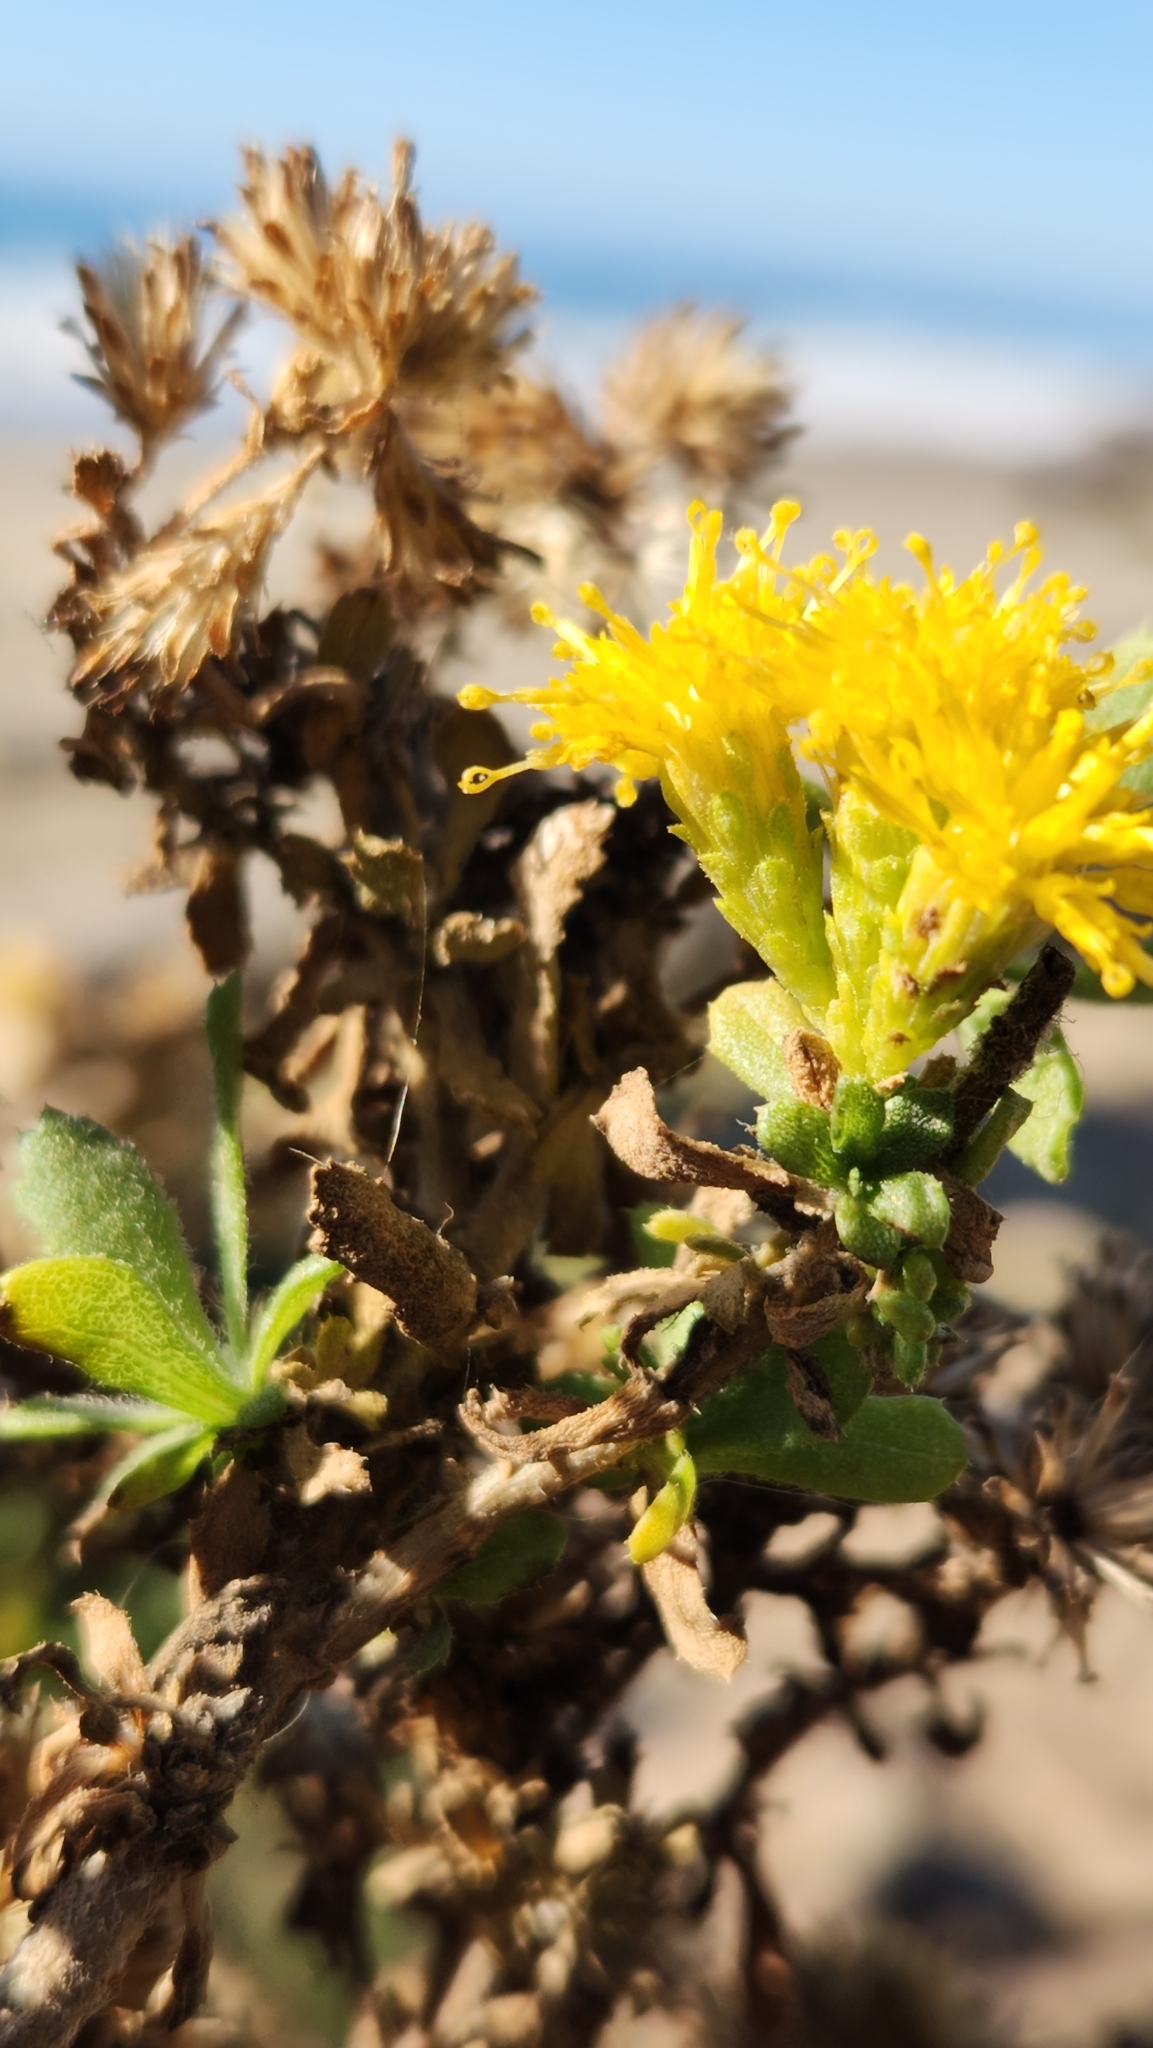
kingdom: Plantae
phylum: Tracheophyta
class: Magnoliopsida
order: Asterales
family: Asteraceae
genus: Isocoma
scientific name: Isocoma menziesii
